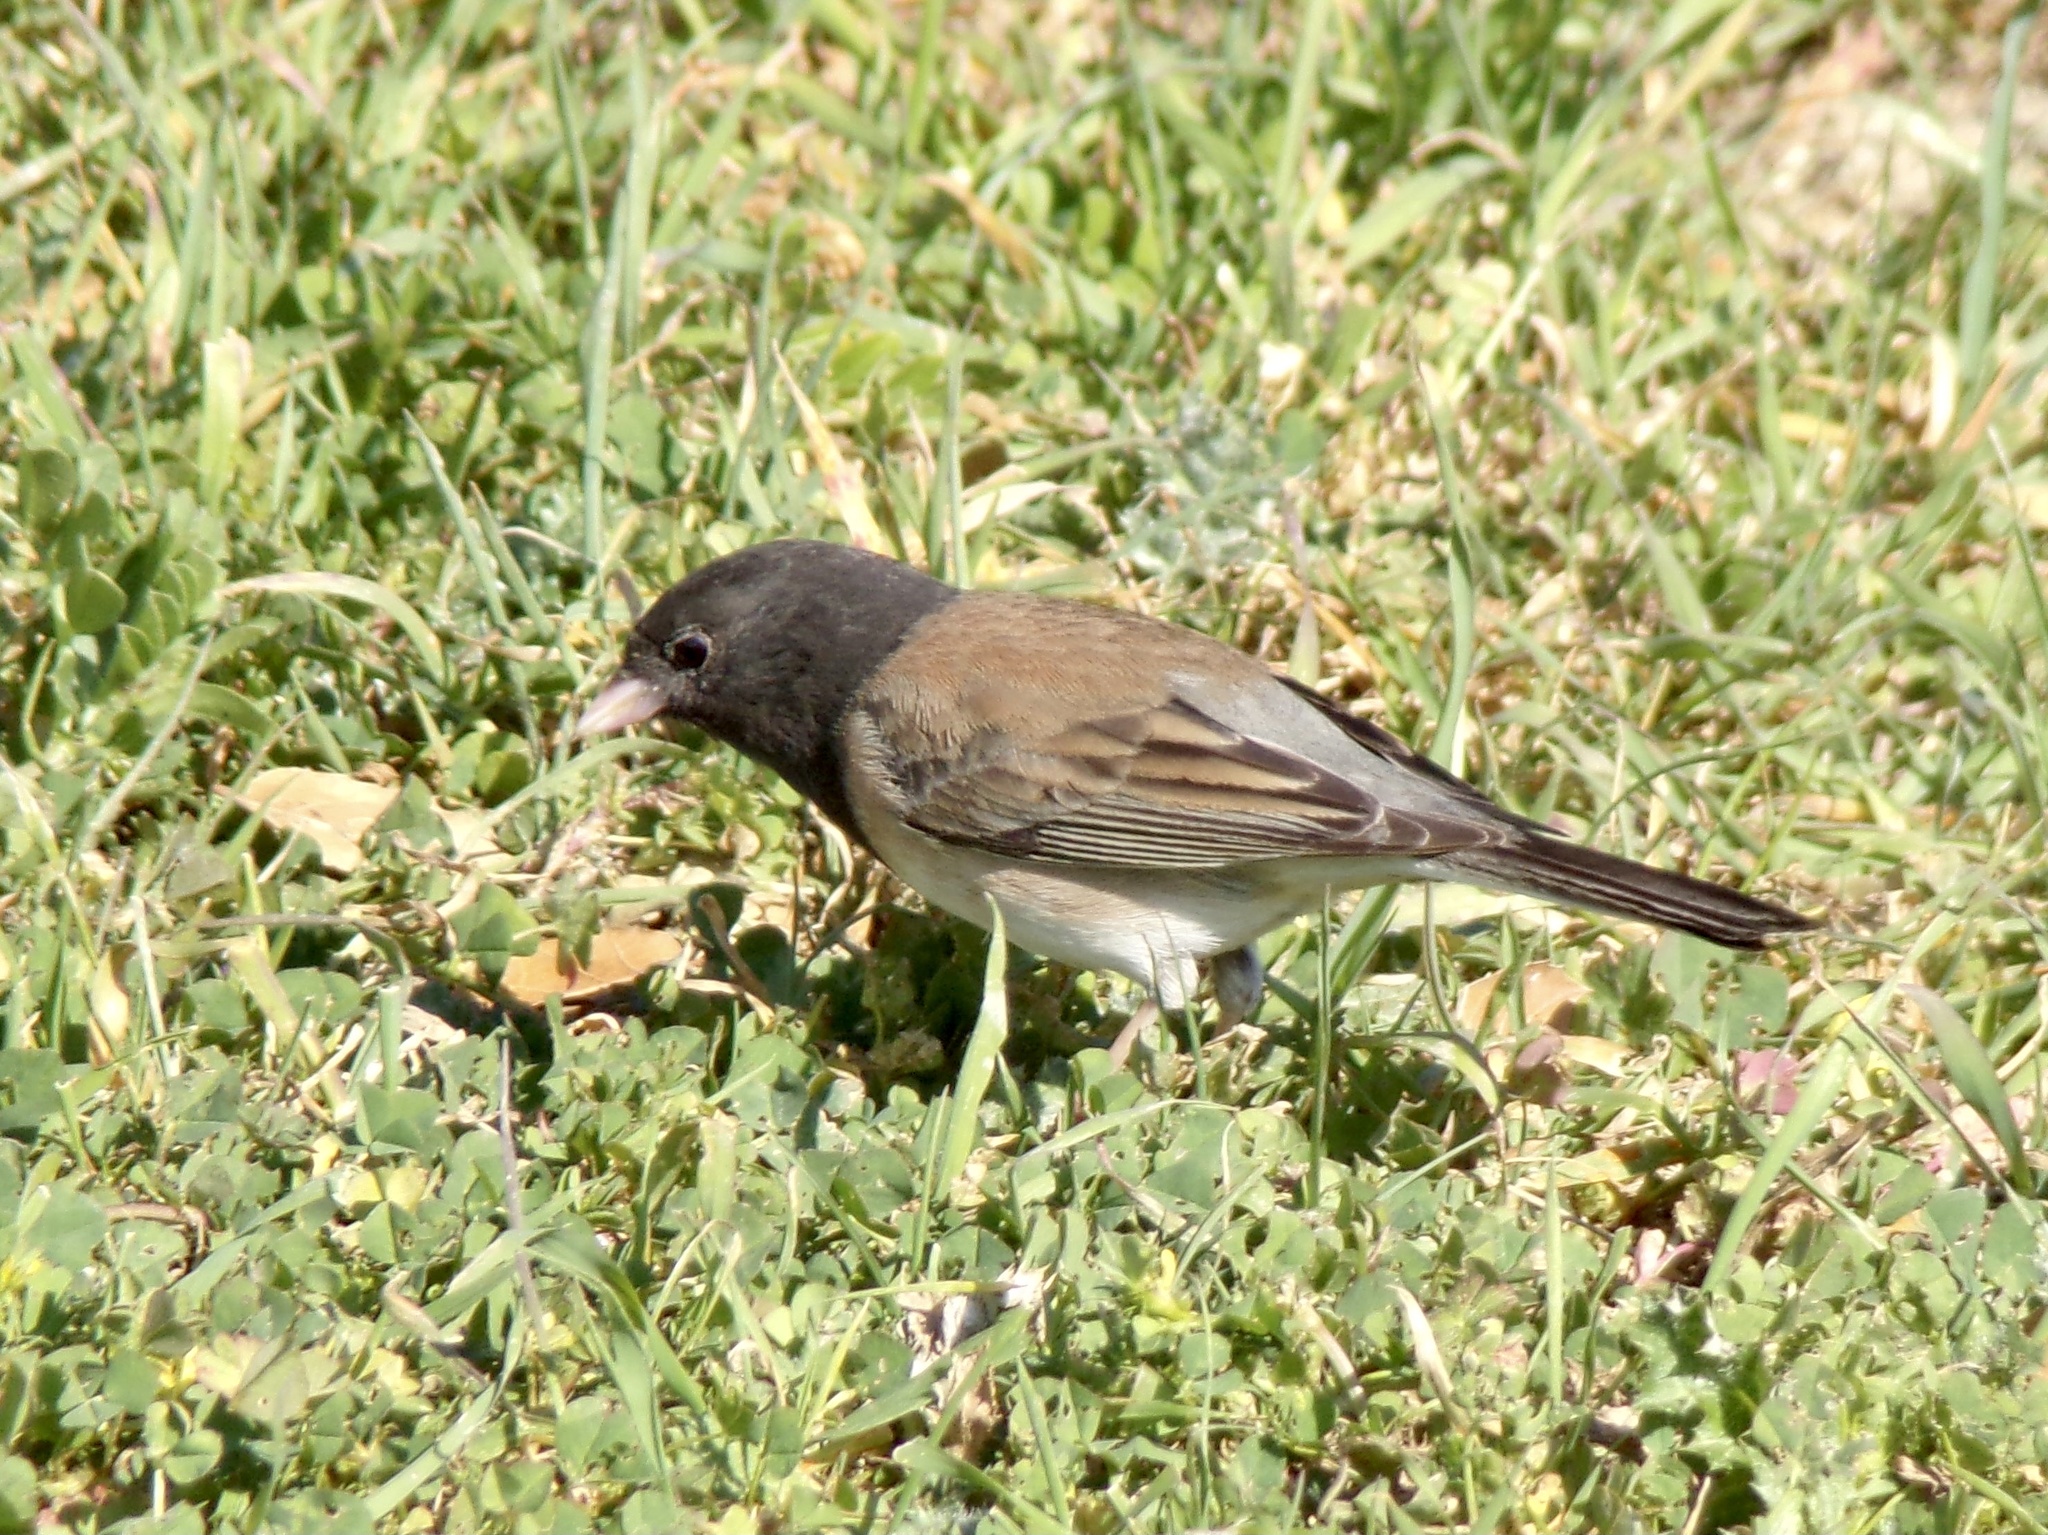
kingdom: Animalia
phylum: Chordata
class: Aves
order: Passeriformes
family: Passerellidae
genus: Junco
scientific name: Junco hyemalis
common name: Dark-eyed junco
